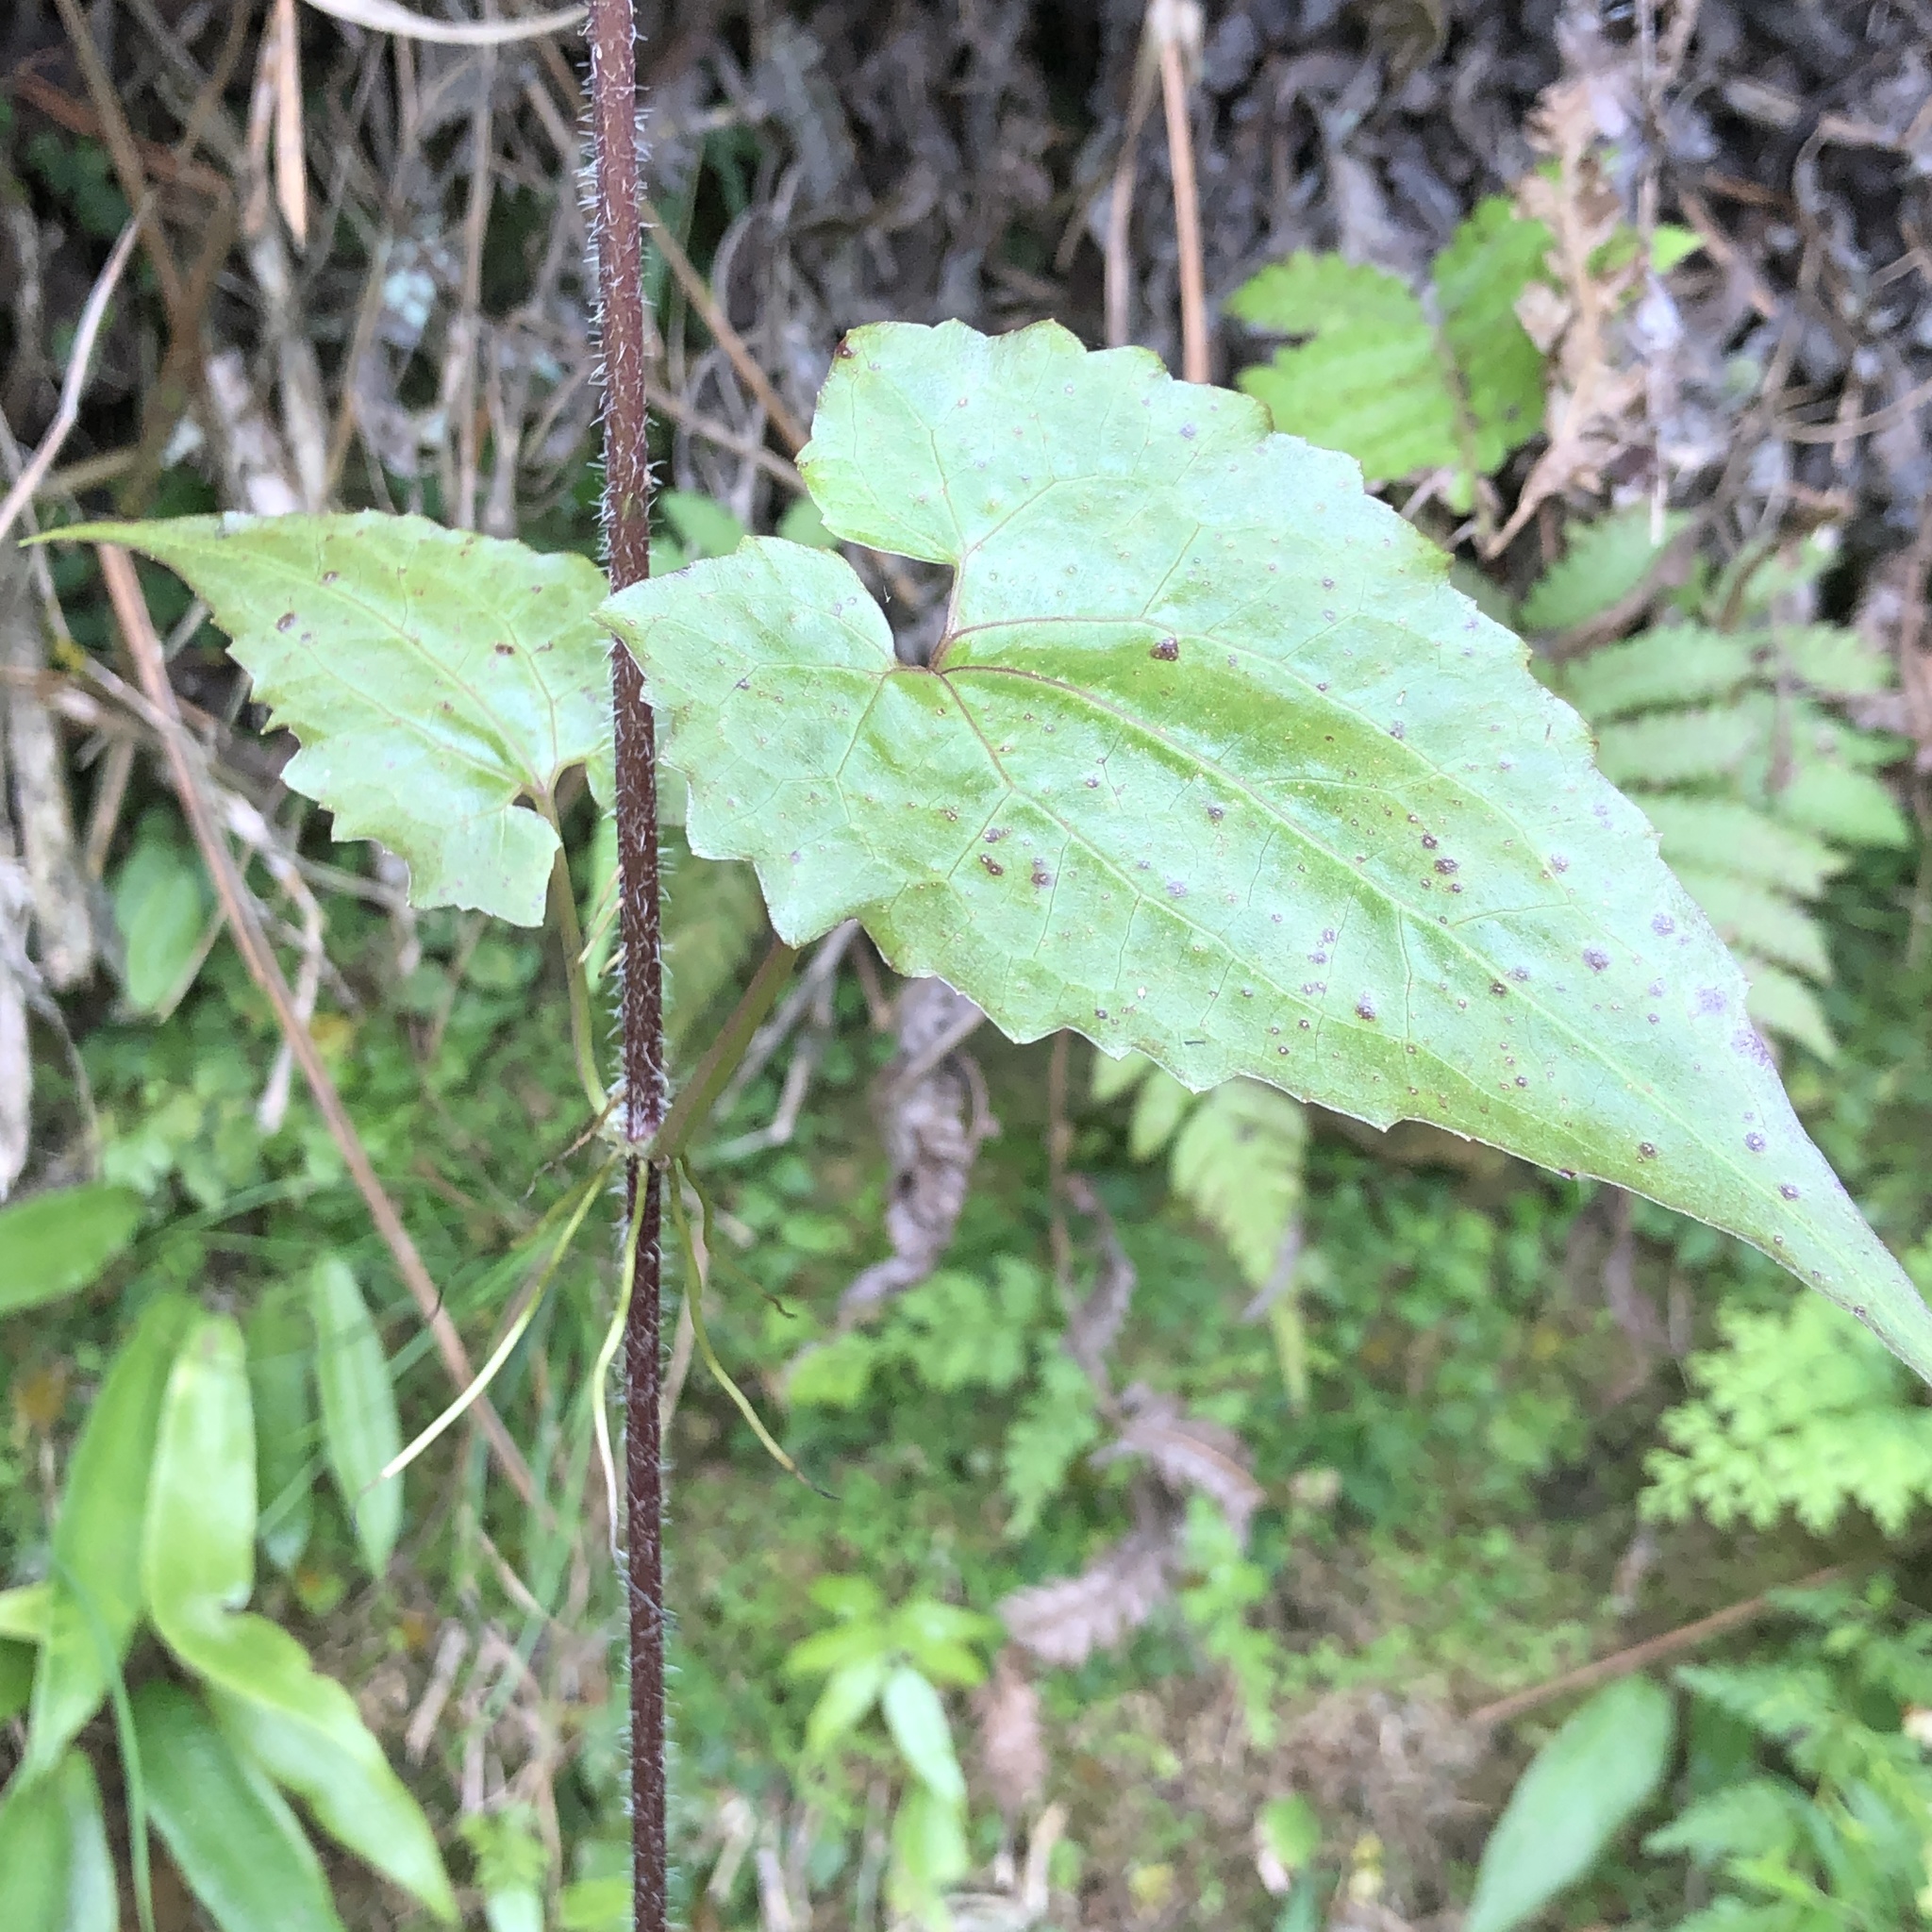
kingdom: Plantae
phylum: Tracheophyta
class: Magnoliopsida
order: Asterales
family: Asteraceae
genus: Mikania
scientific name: Mikania micrantha
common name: Mile-a-minute
